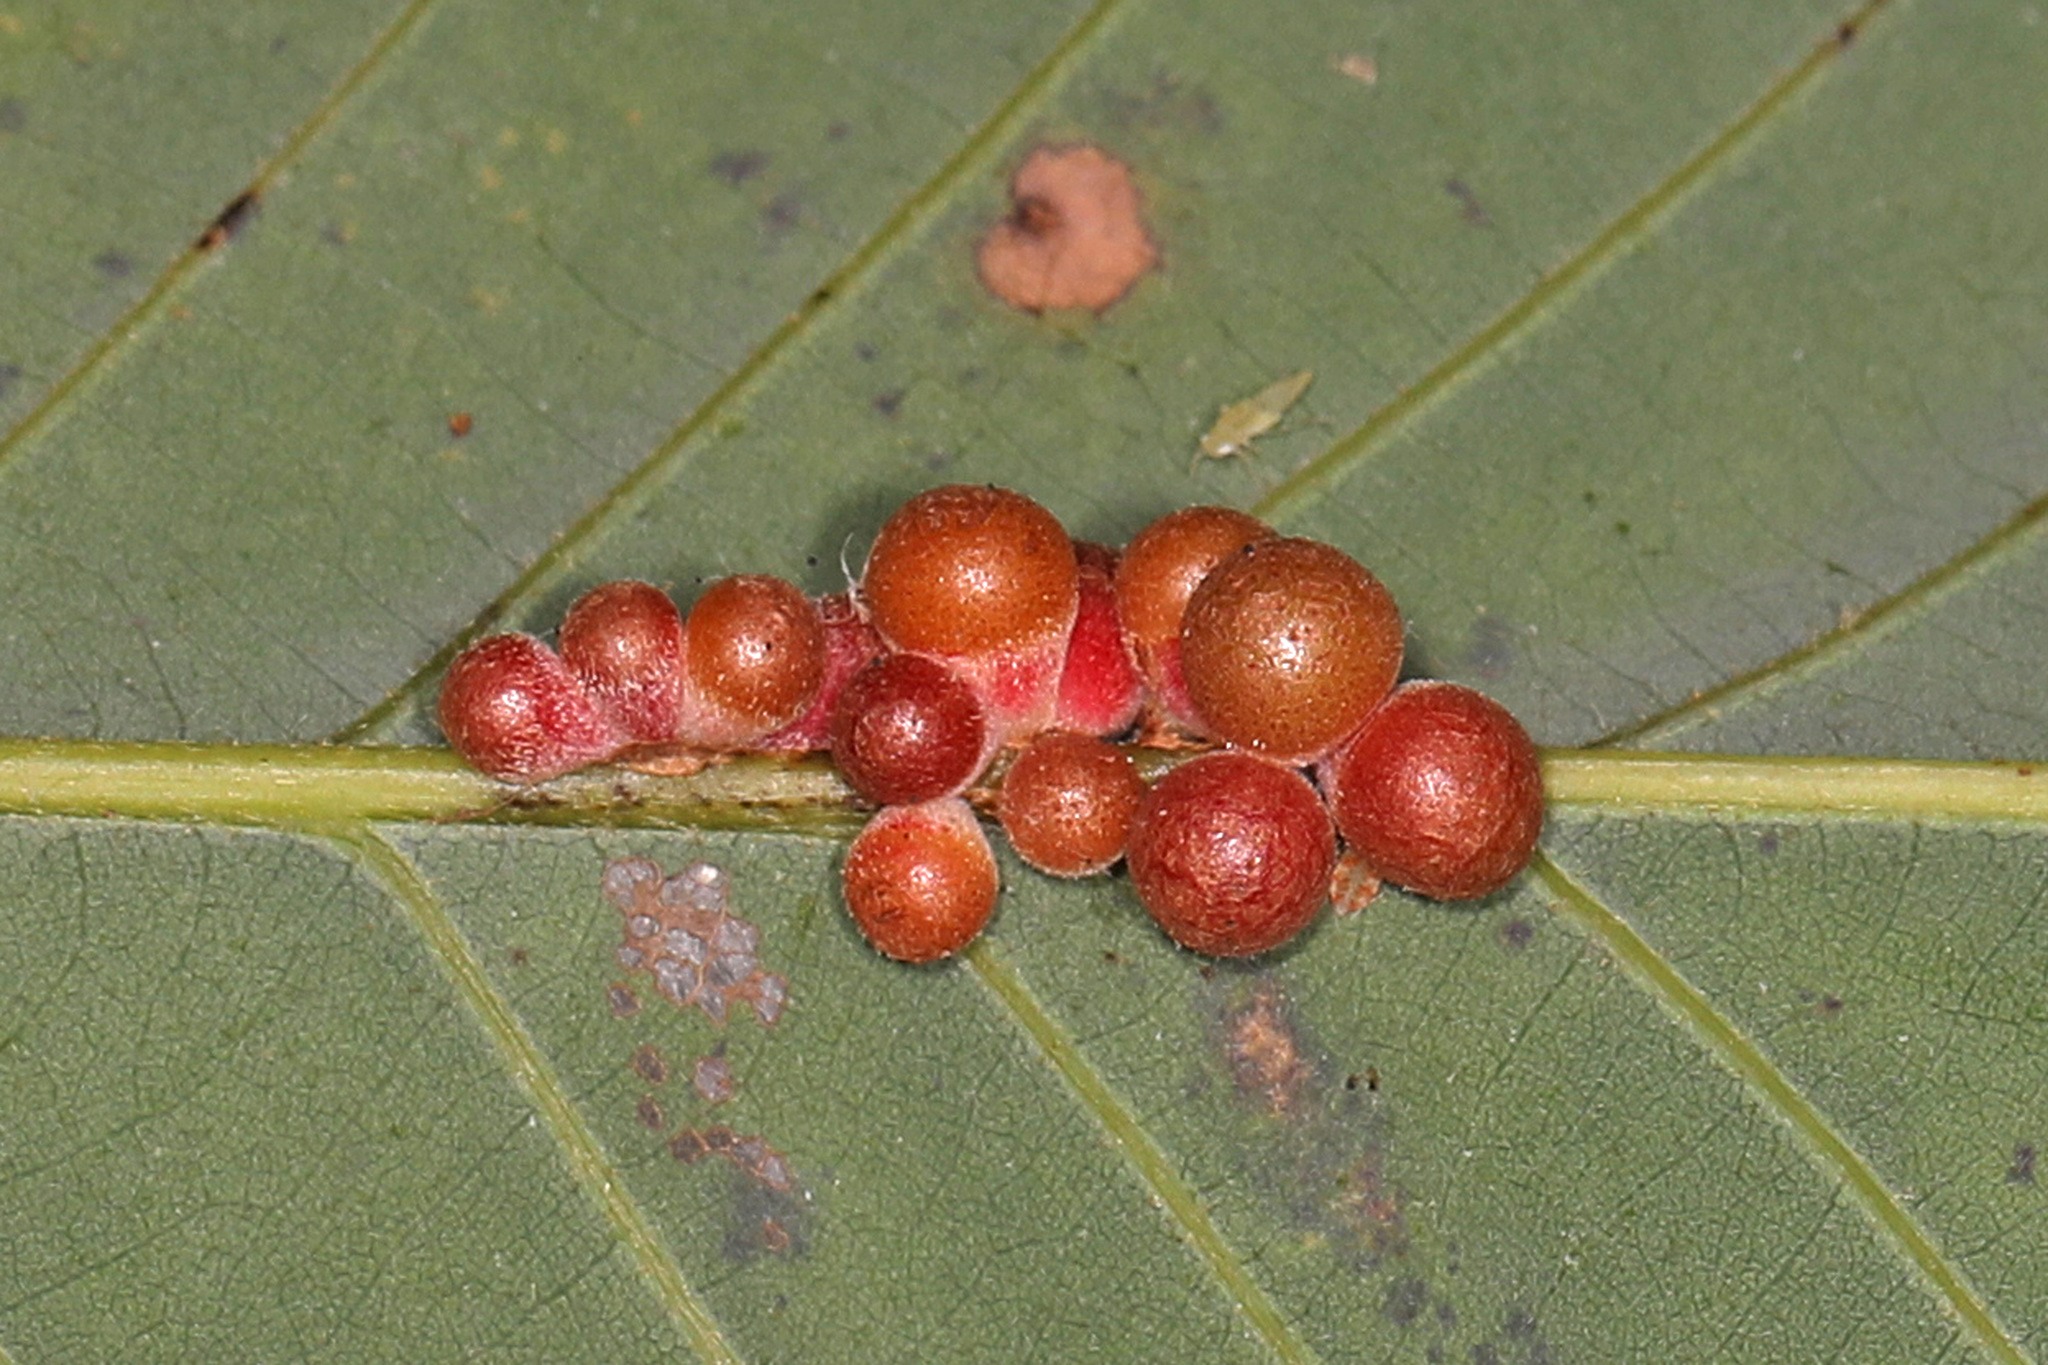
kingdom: Animalia
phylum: Arthropoda
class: Insecta
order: Hymenoptera
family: Cynipidae
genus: Andricus
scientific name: Andricus
